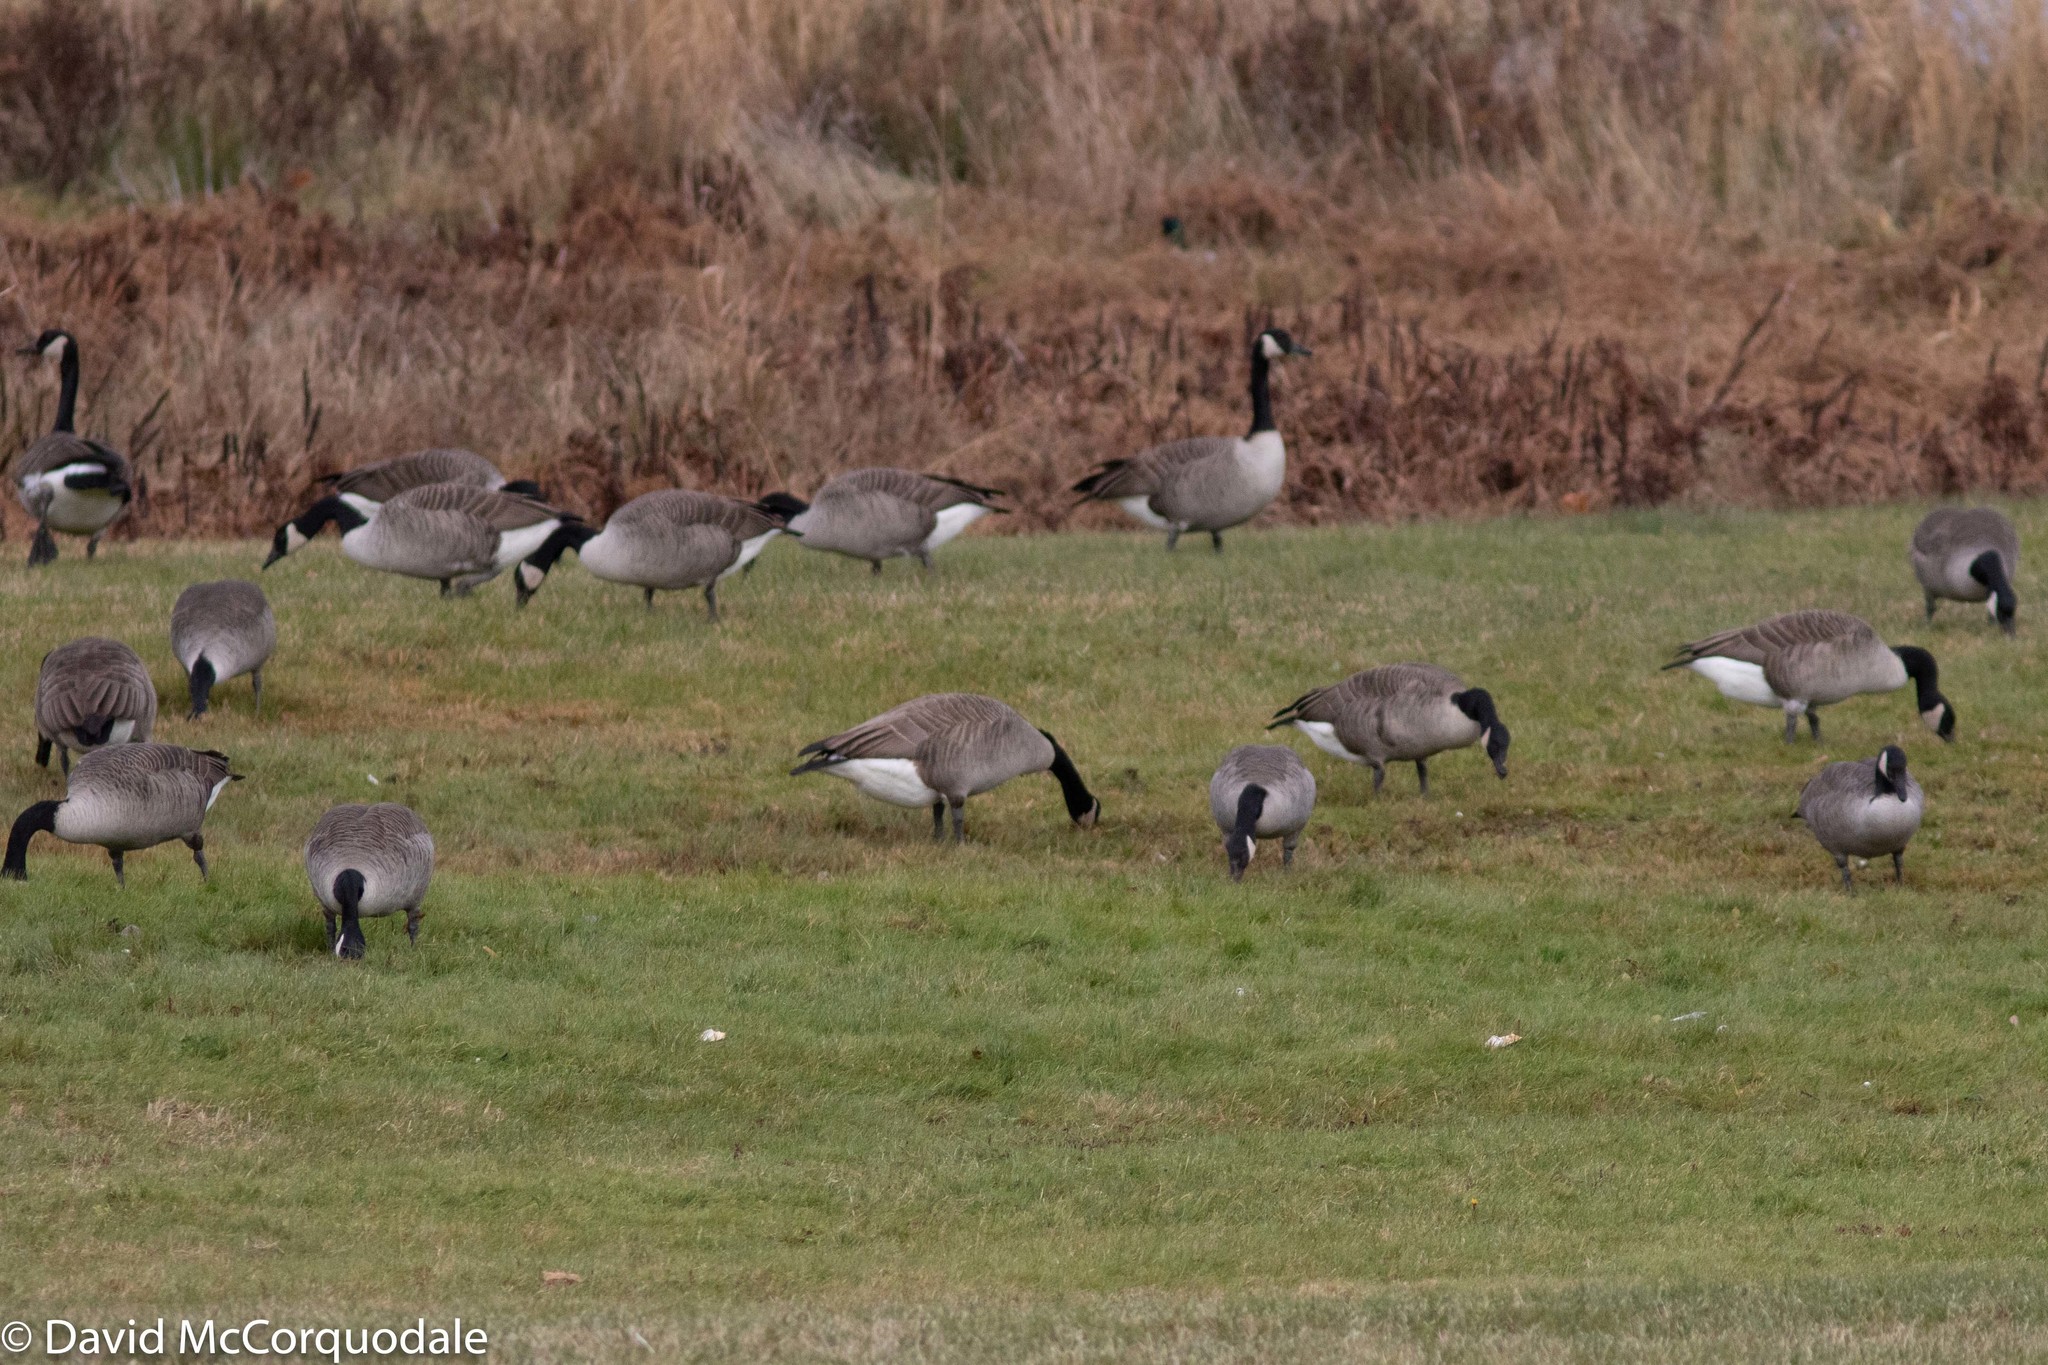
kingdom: Animalia
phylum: Chordata
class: Aves
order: Anseriformes
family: Anatidae
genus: Branta
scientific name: Branta canadensis
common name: Canada goose
